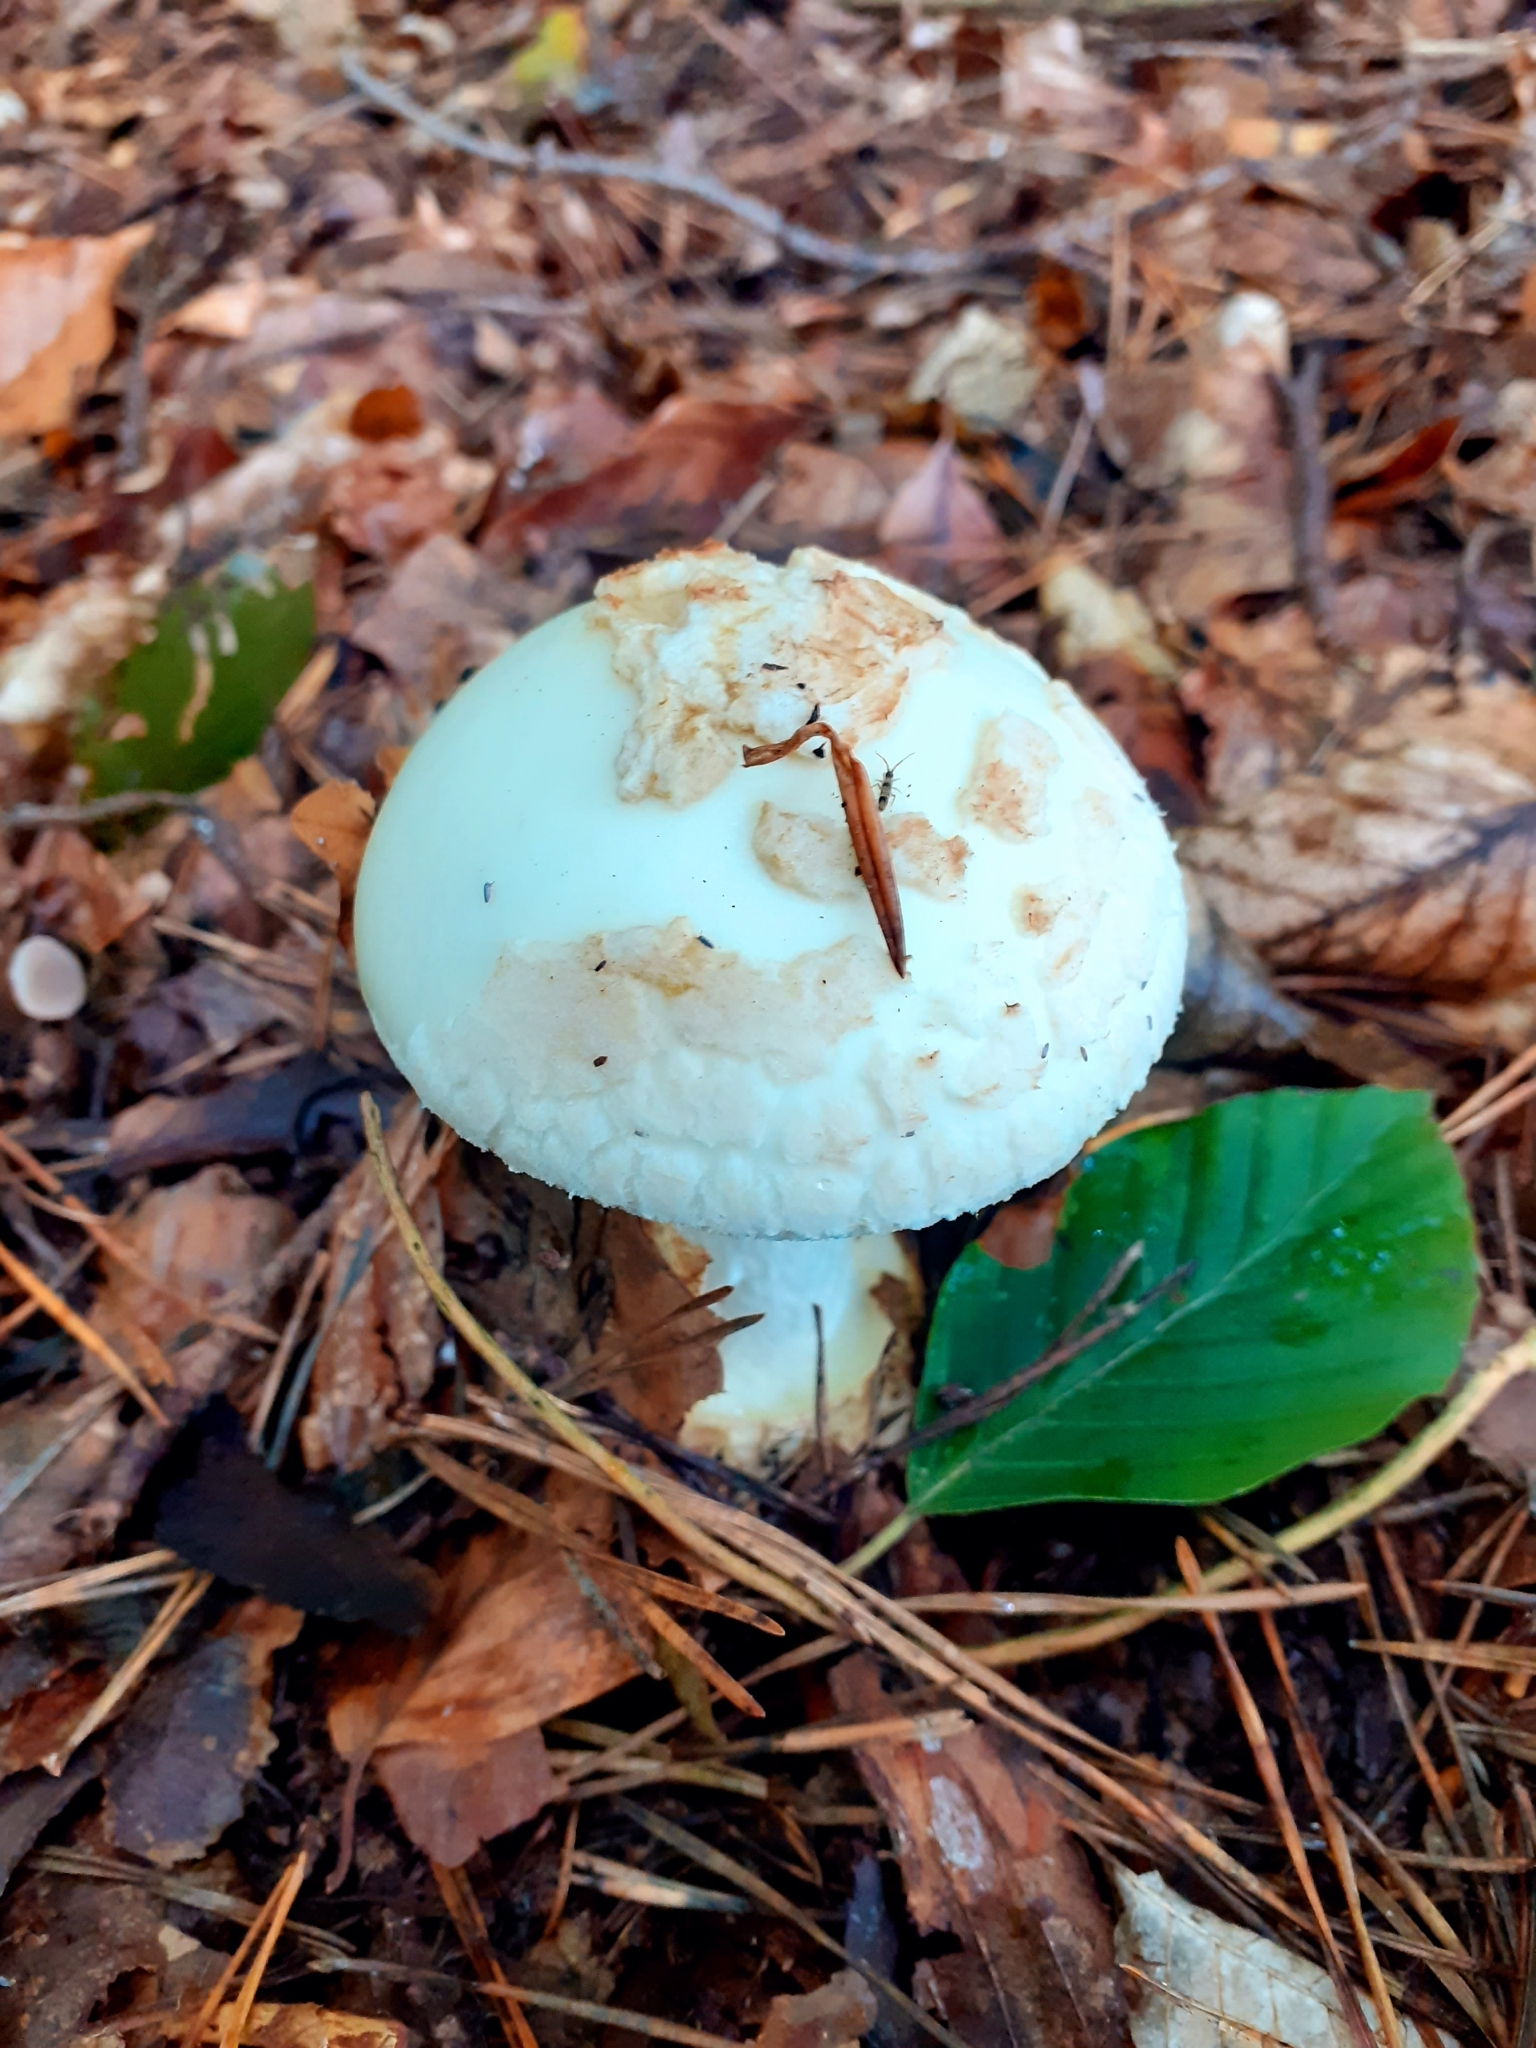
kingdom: Fungi
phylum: Basidiomycota
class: Agaricomycetes
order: Agaricales
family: Amanitaceae
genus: Amanita
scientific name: Amanita citrina
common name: False death-cap
